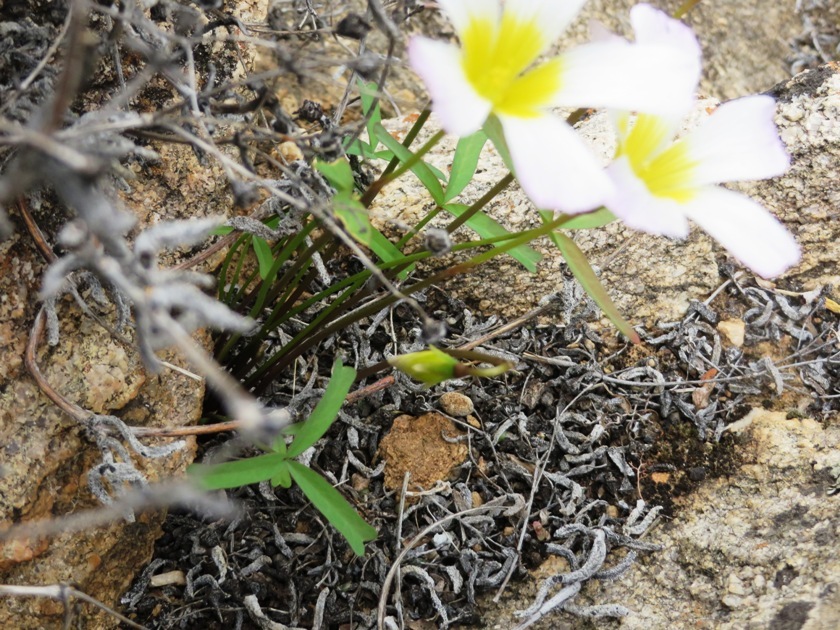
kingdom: Plantae
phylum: Tracheophyta
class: Magnoliopsida
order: Oxalidales
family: Oxalidaceae
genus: Oxalis
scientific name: Oxalis obtusa
